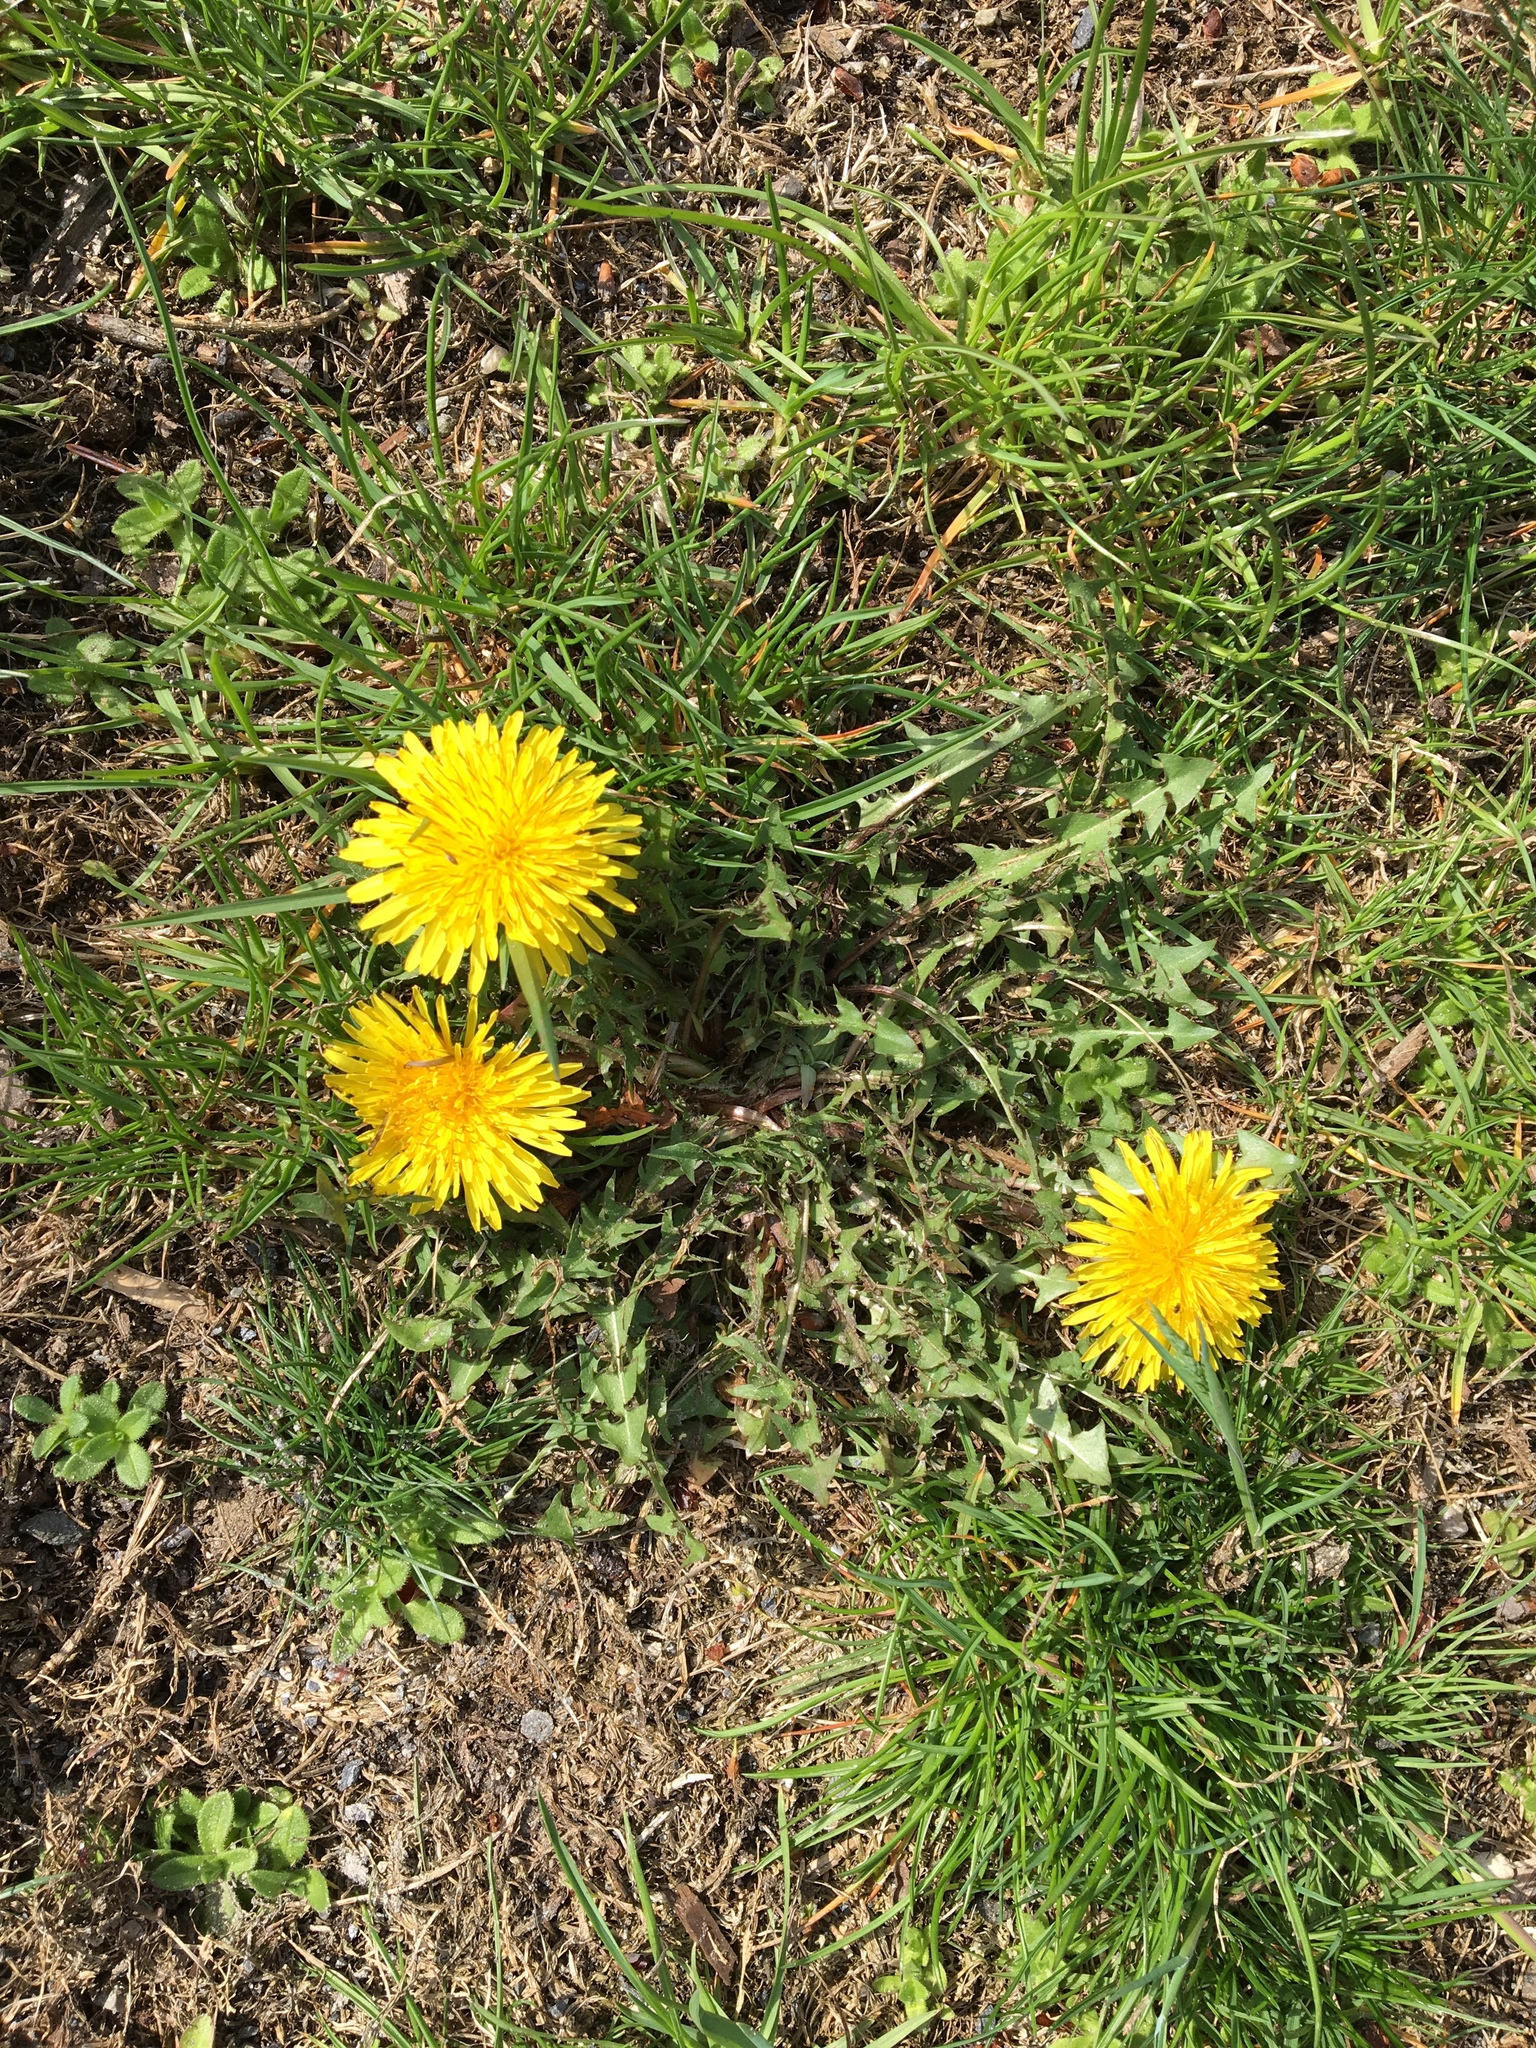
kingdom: Plantae
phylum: Tracheophyta
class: Magnoliopsida
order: Asterales
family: Asteraceae
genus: Taraxacum
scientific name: Taraxacum officinale
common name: Common dandelion
